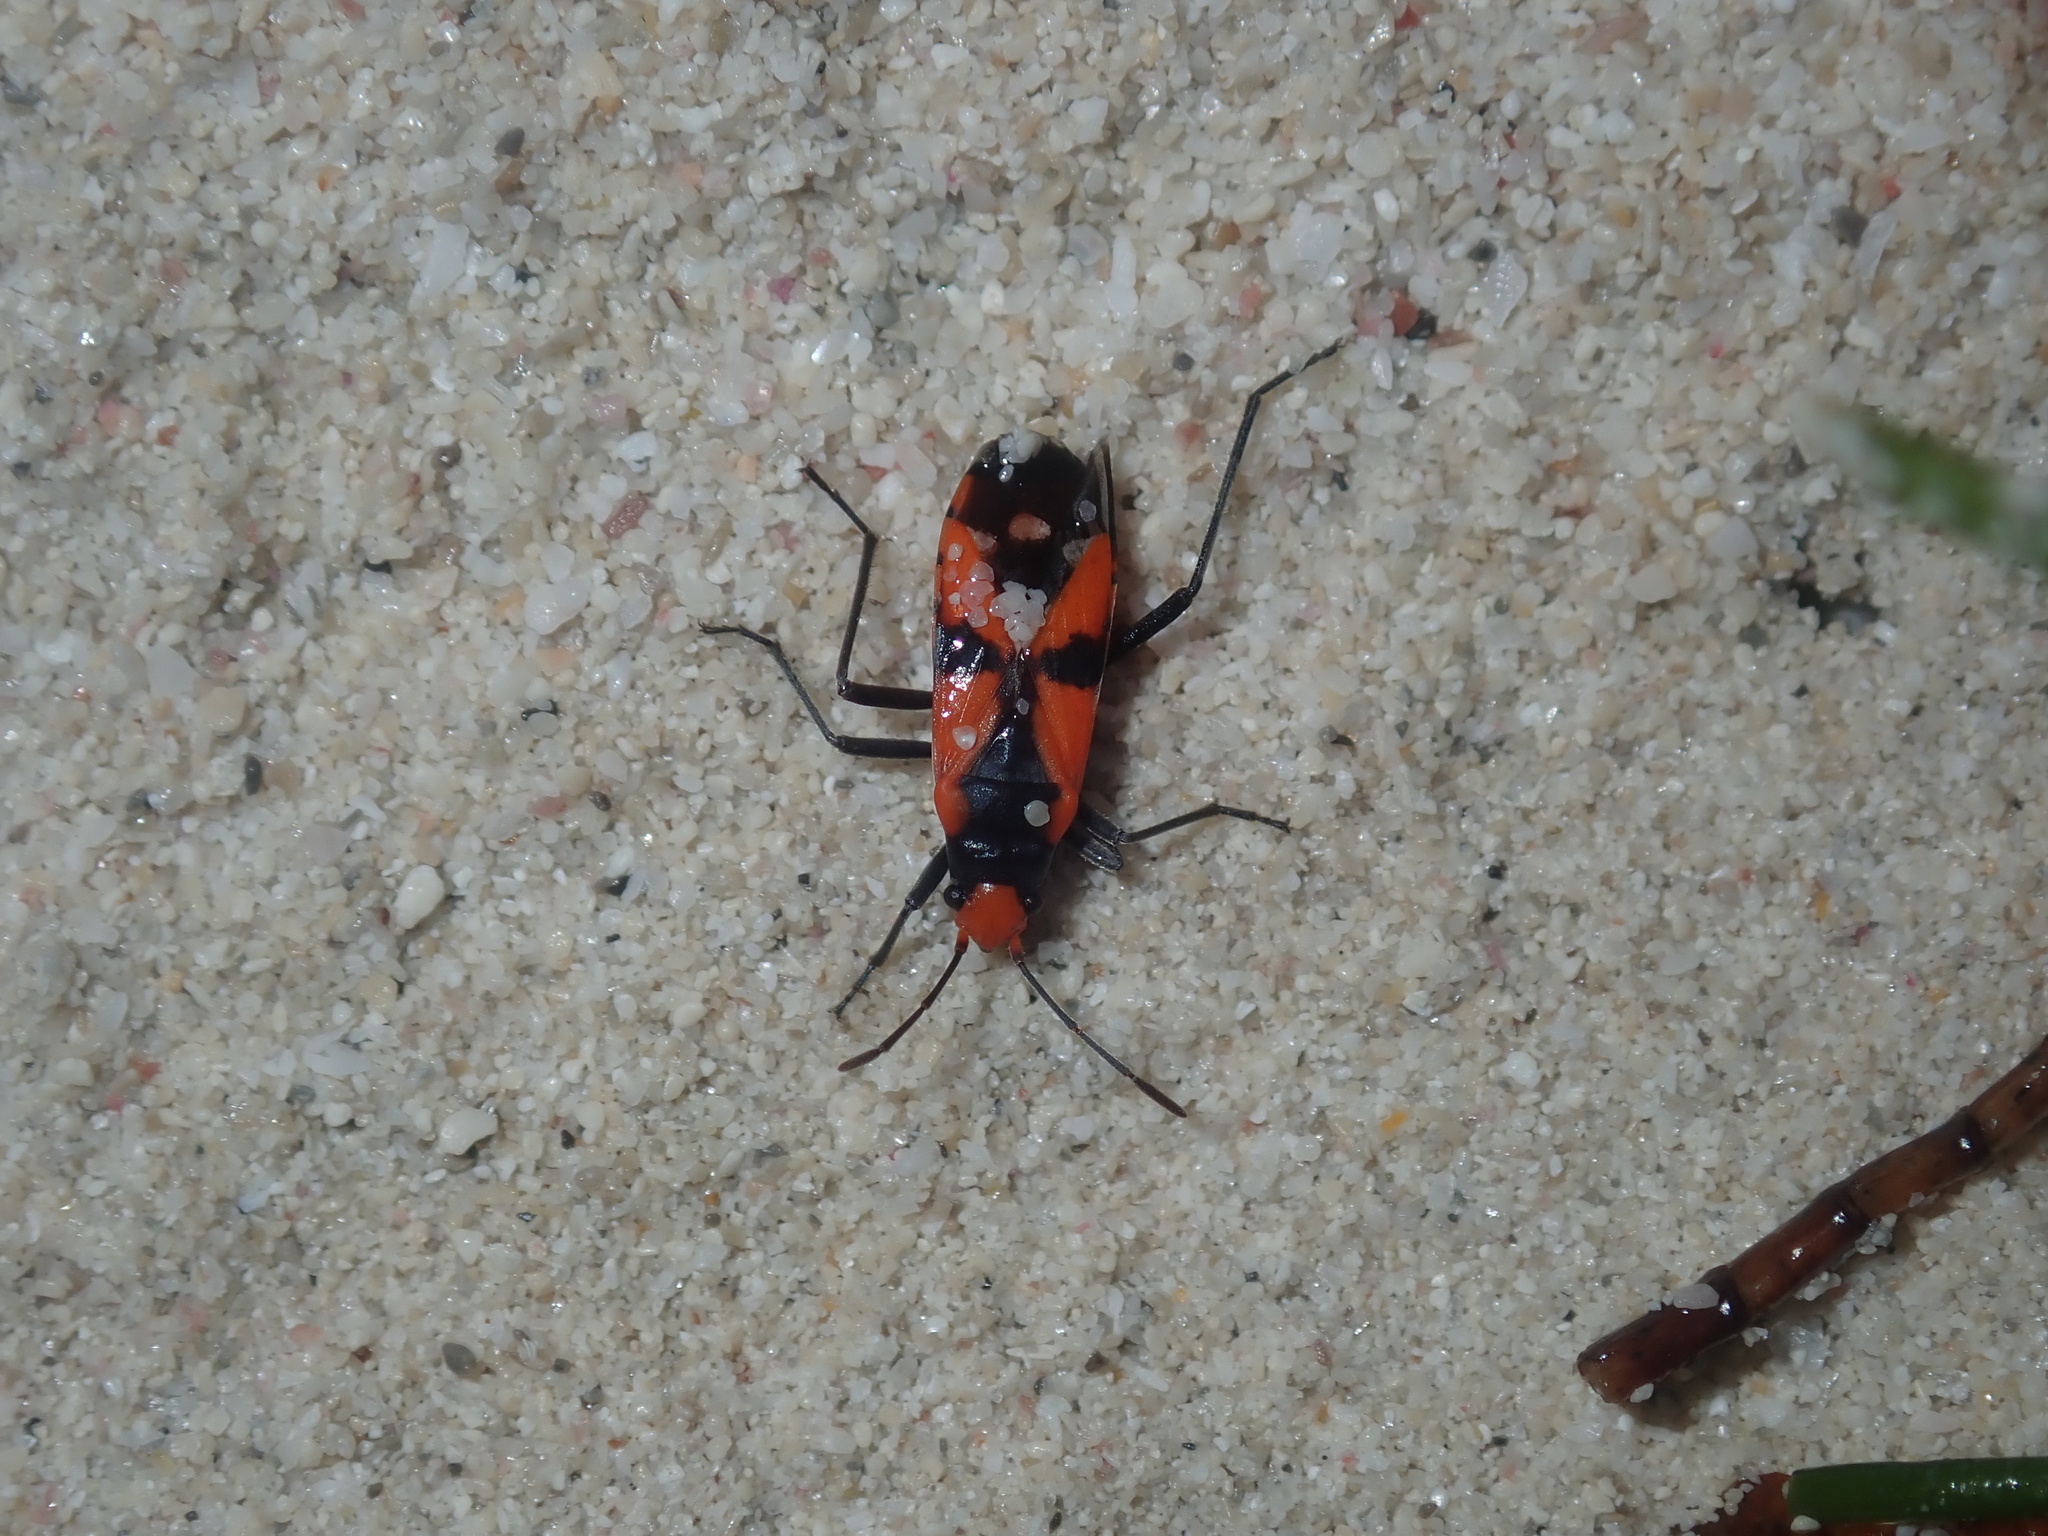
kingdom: Animalia
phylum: Arthropoda
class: Insecta
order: Hemiptera
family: Lygaeidae
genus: Melanerythrus
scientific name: Melanerythrus mactans
